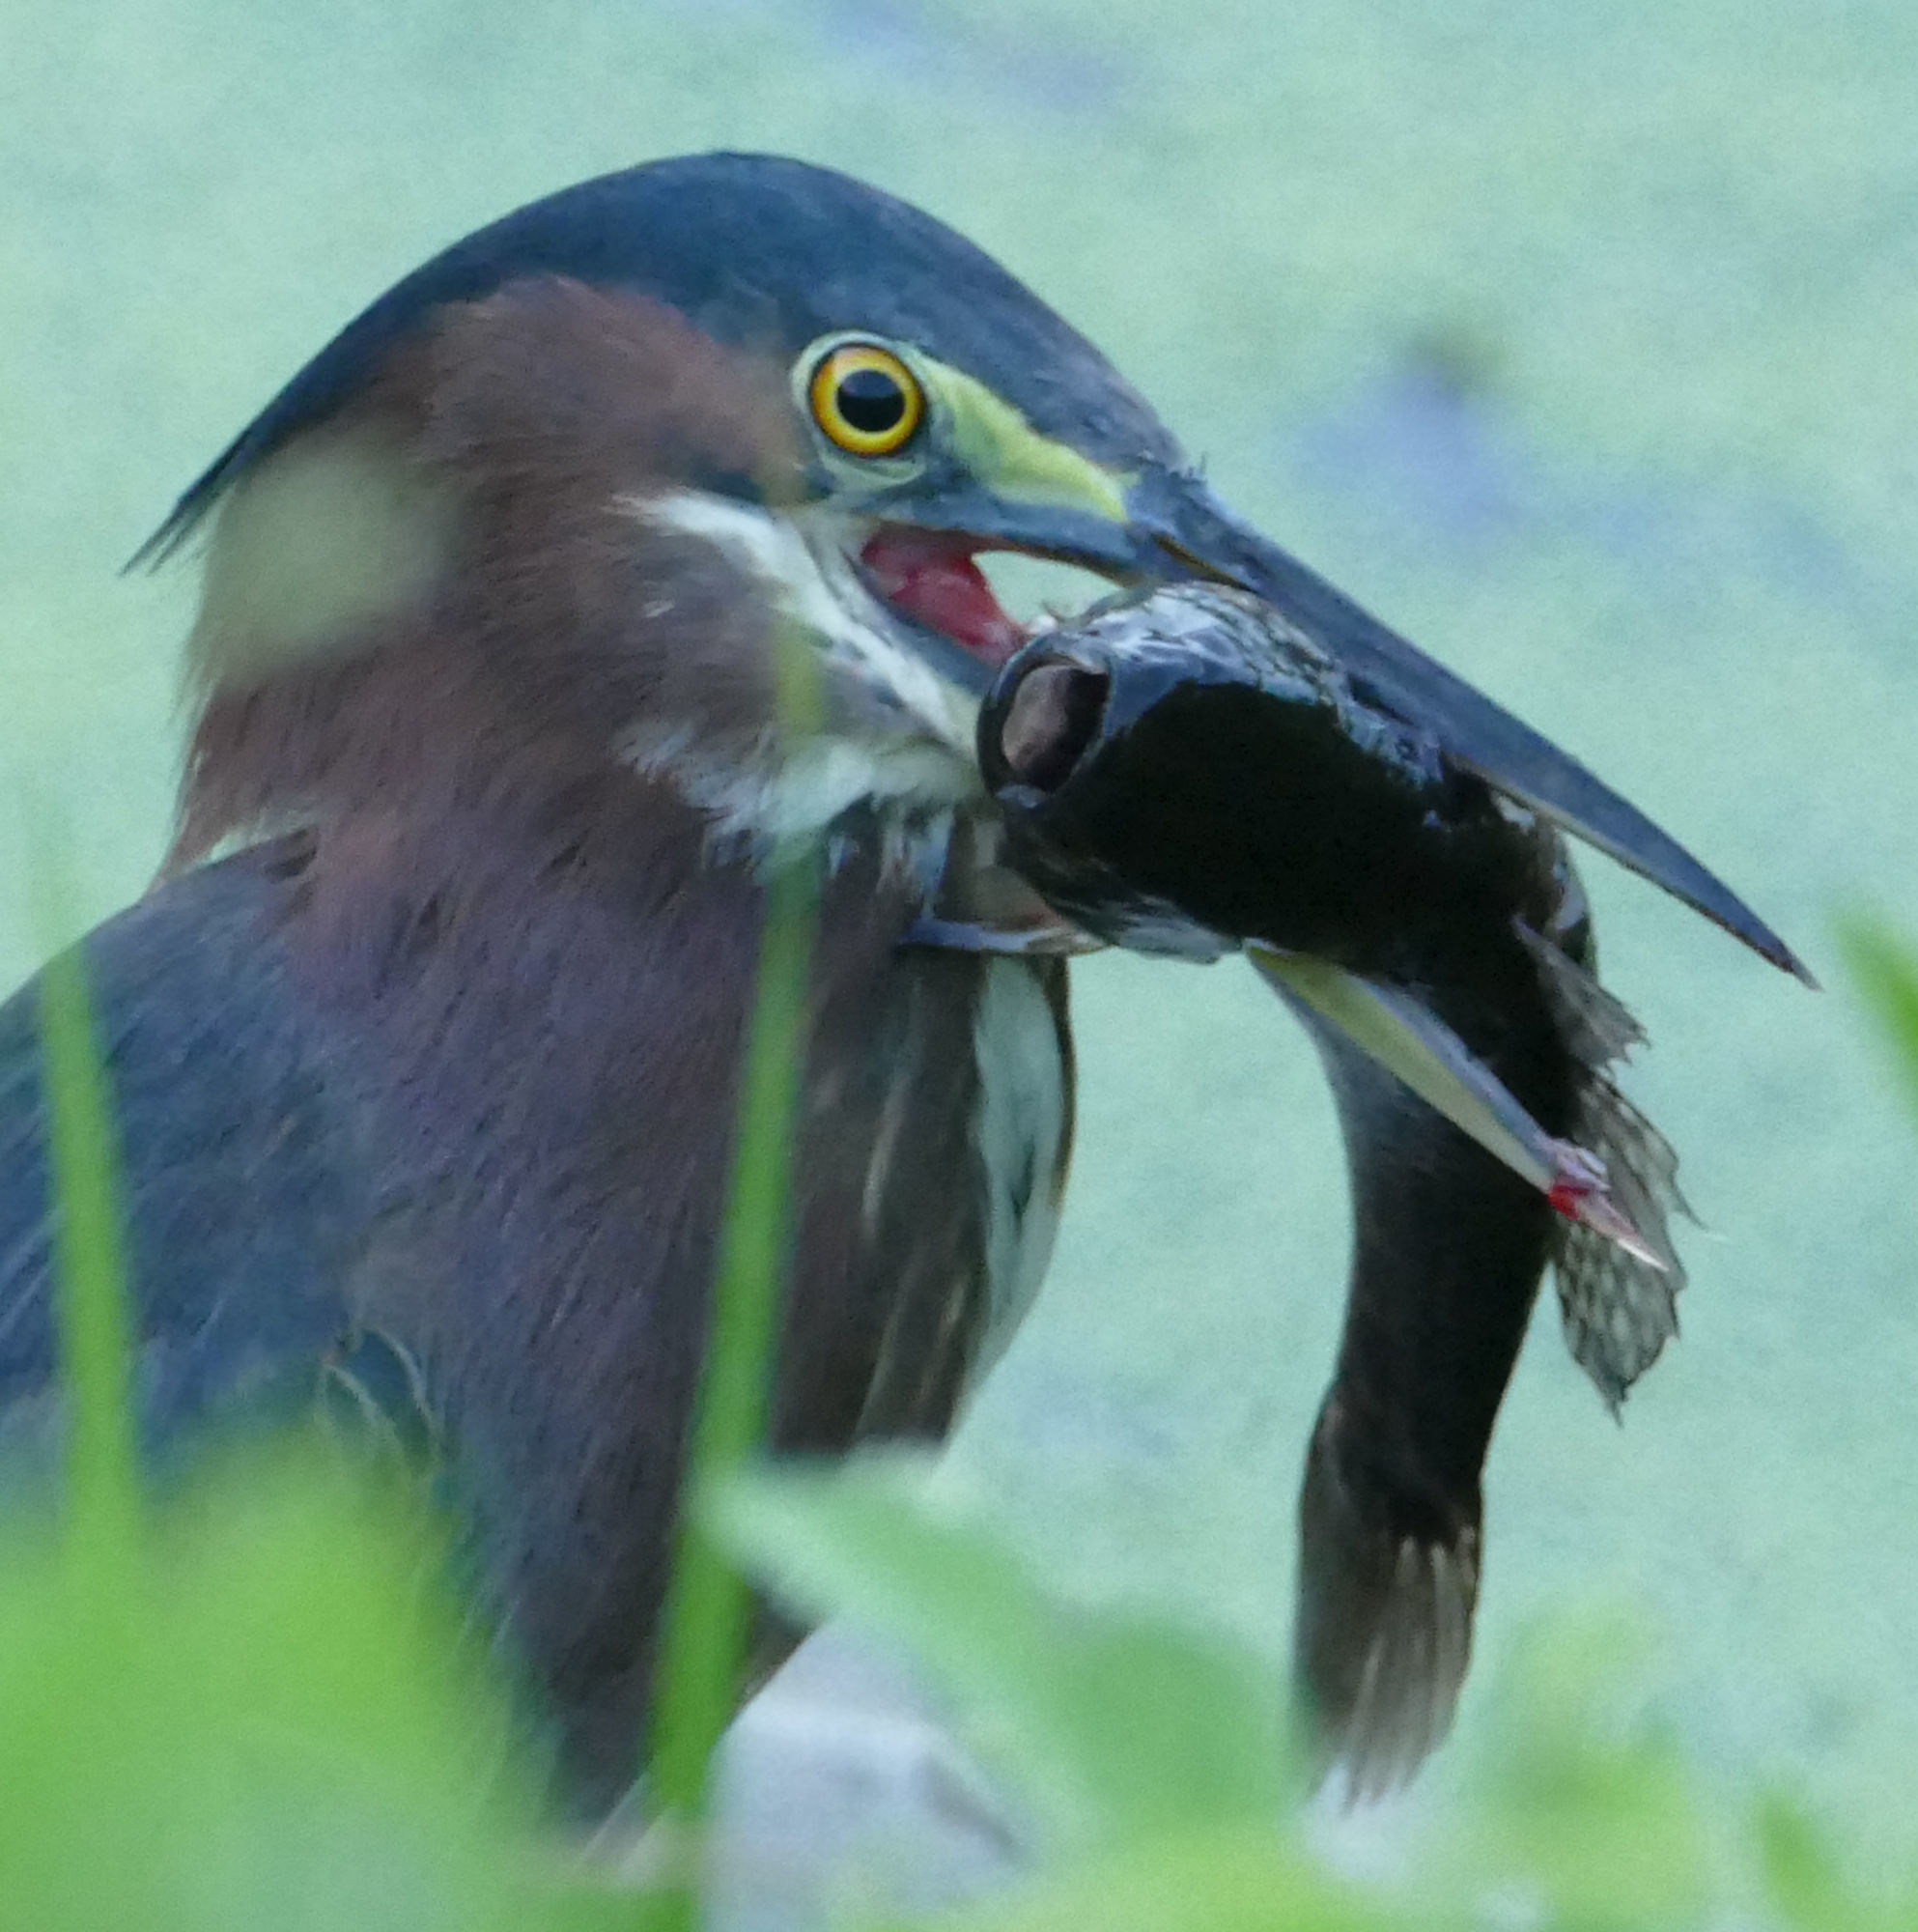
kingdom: Animalia
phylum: Chordata
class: Aves
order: Pelecaniformes
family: Ardeidae
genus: Butorides
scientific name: Butorides virescens
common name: Green heron
